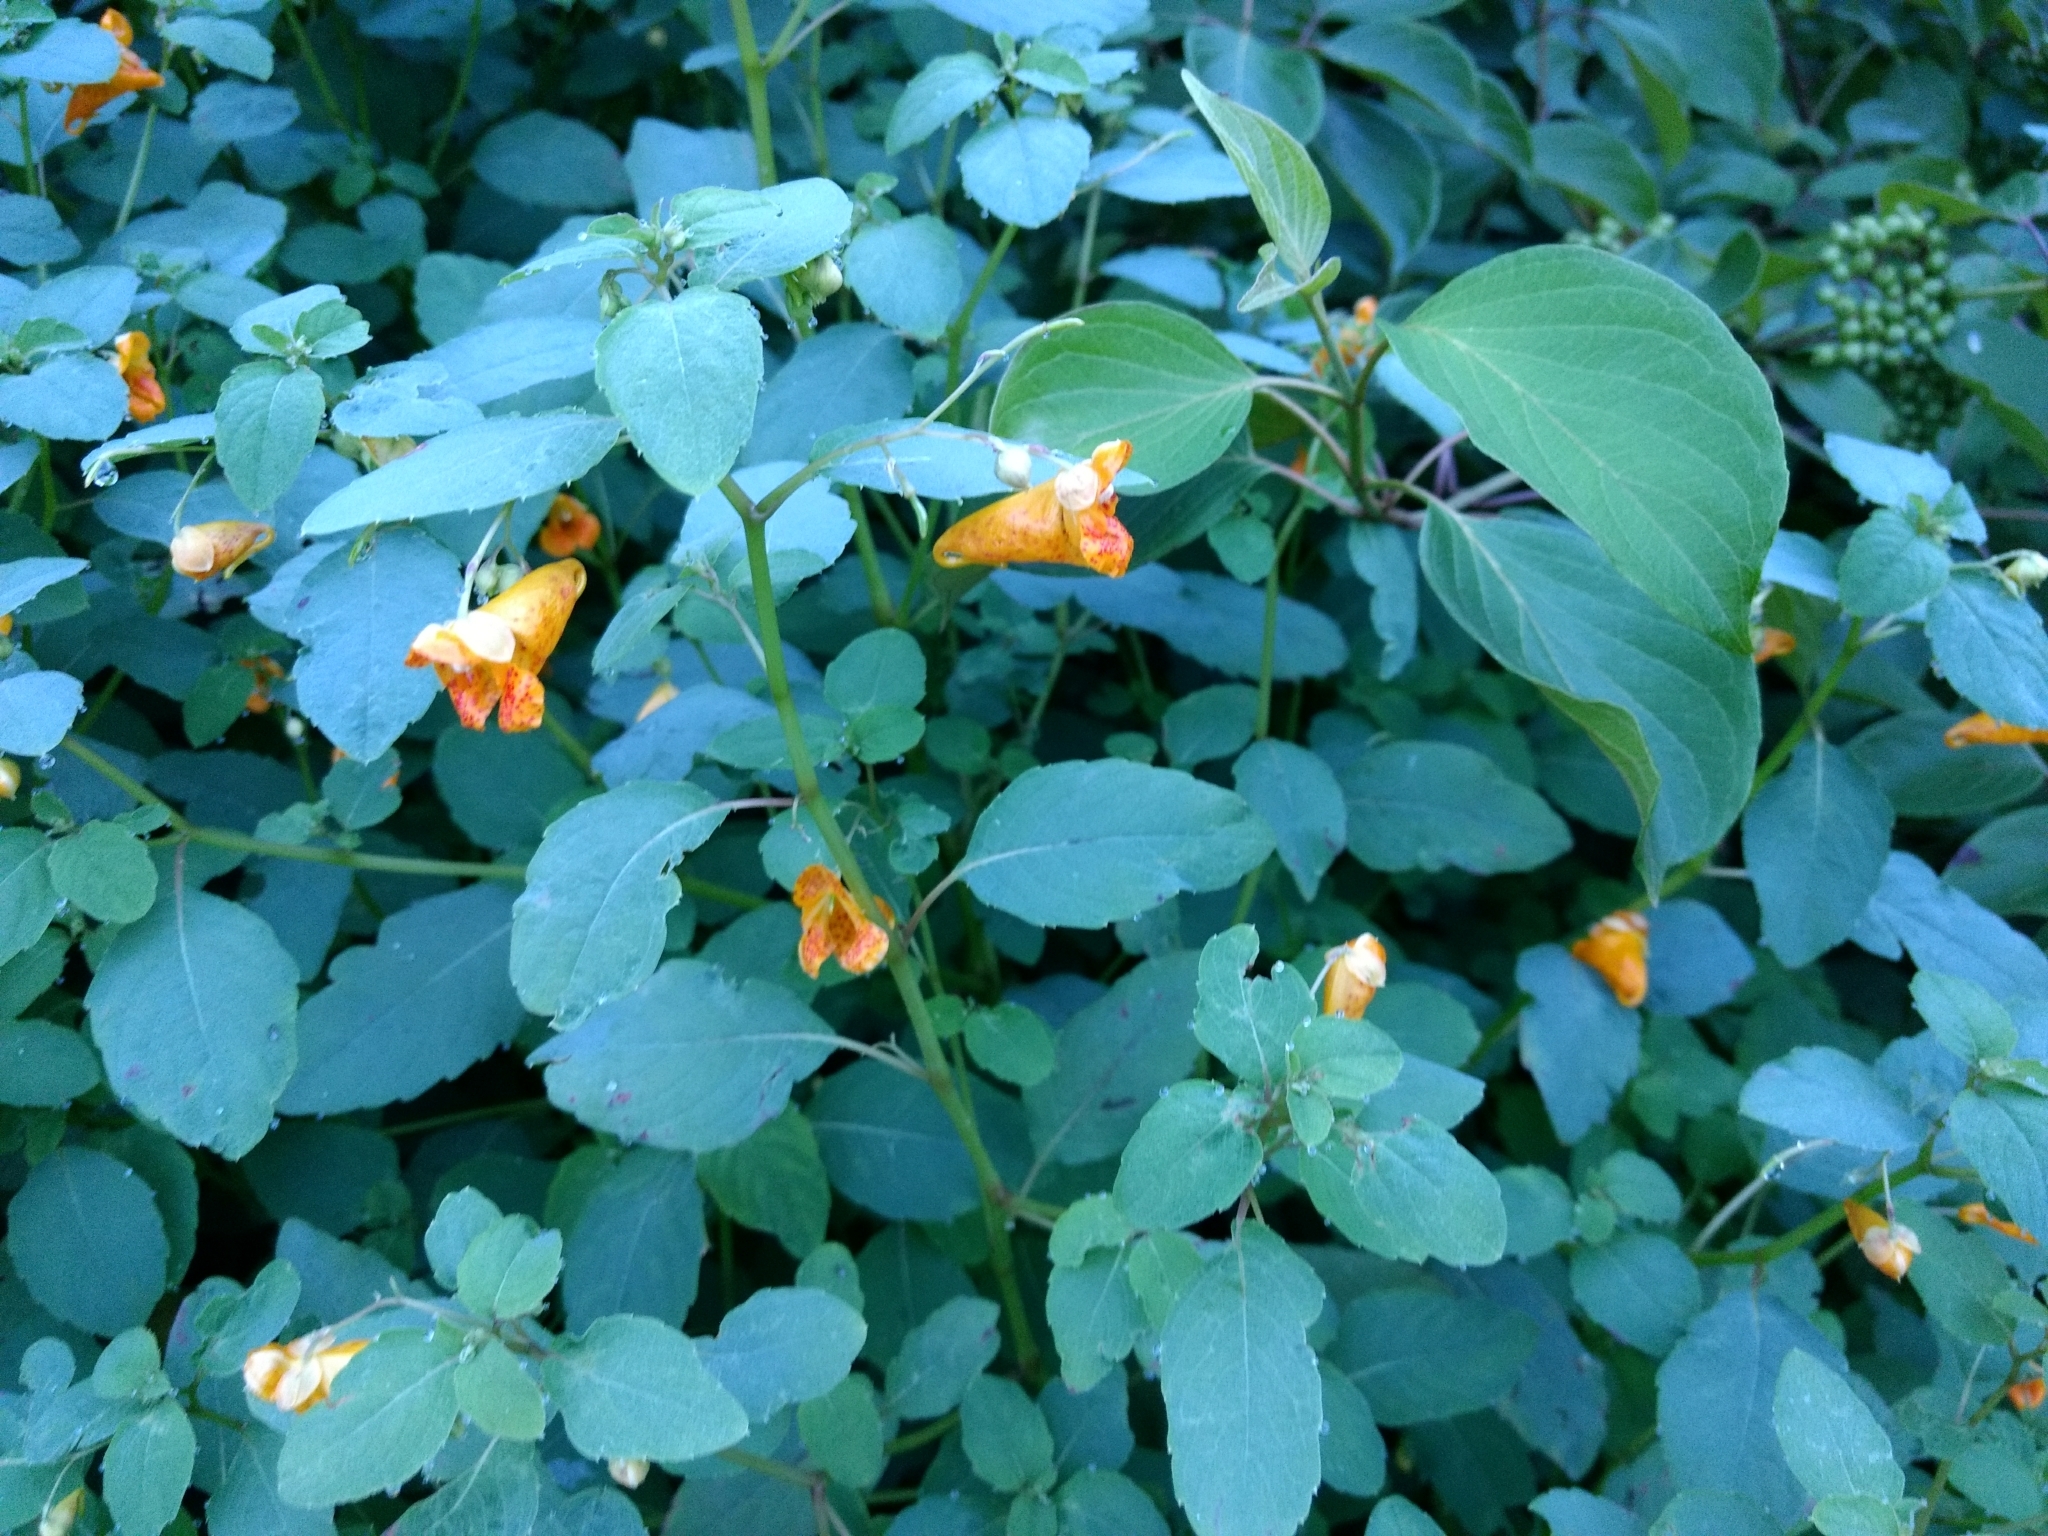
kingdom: Plantae
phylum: Tracheophyta
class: Magnoliopsida
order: Ericales
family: Balsaminaceae
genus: Impatiens
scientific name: Impatiens capensis
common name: Orange balsam
